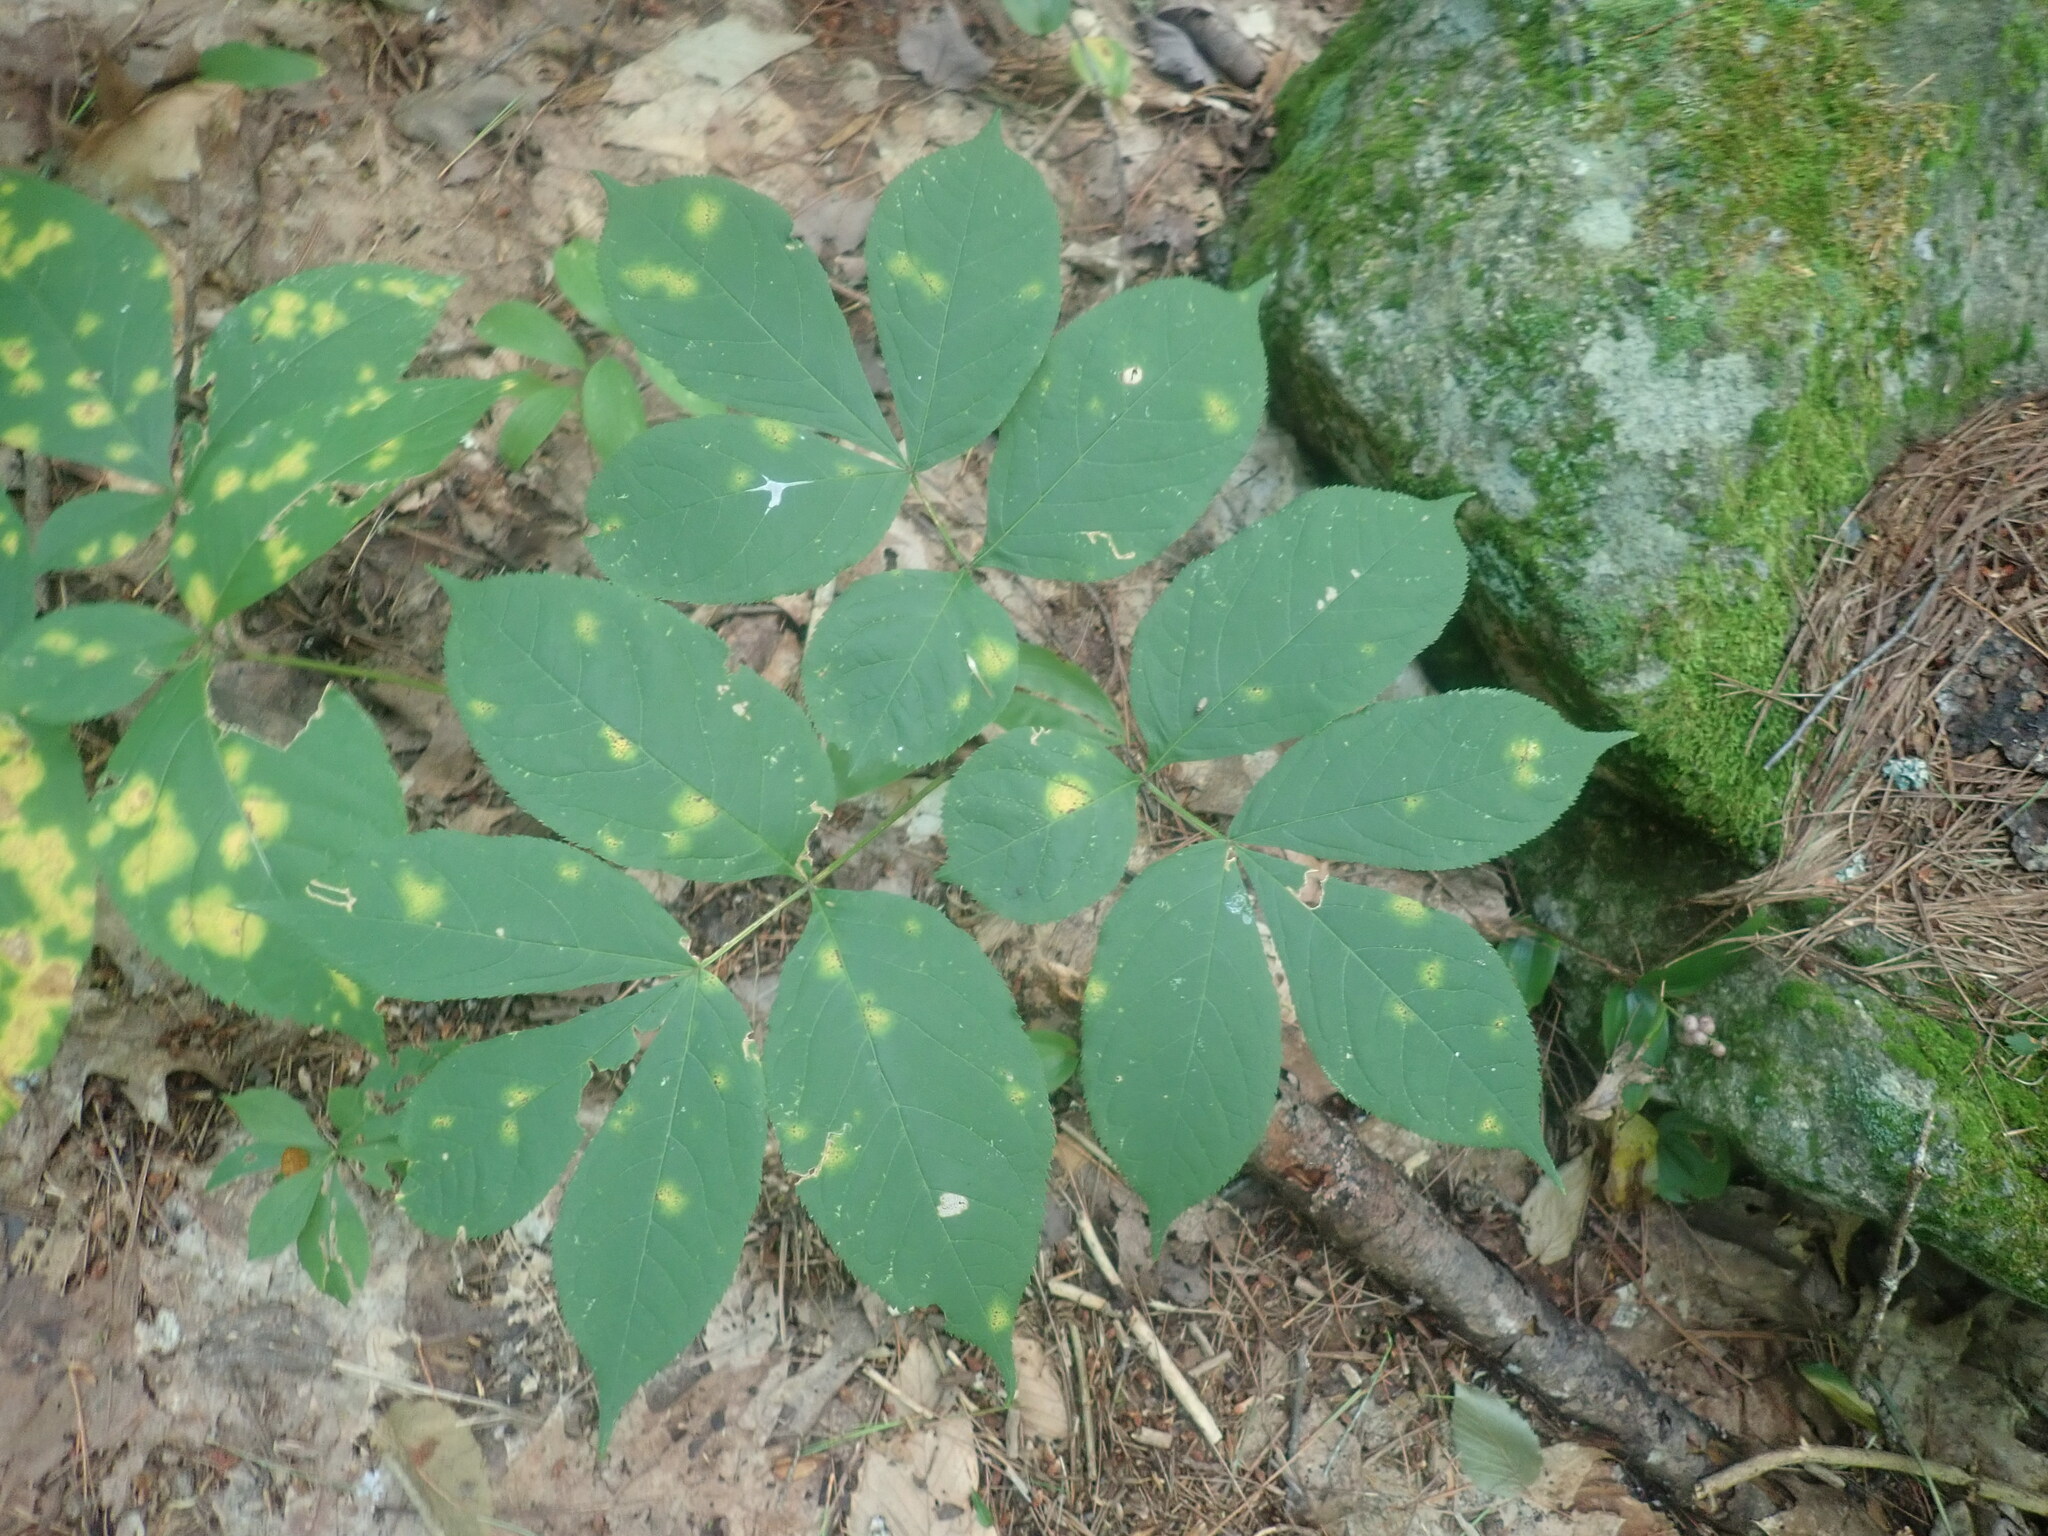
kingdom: Plantae
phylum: Tracheophyta
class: Magnoliopsida
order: Apiales
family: Araliaceae
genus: Aralia
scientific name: Aralia nudicaulis
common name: Wild sarsaparilla
